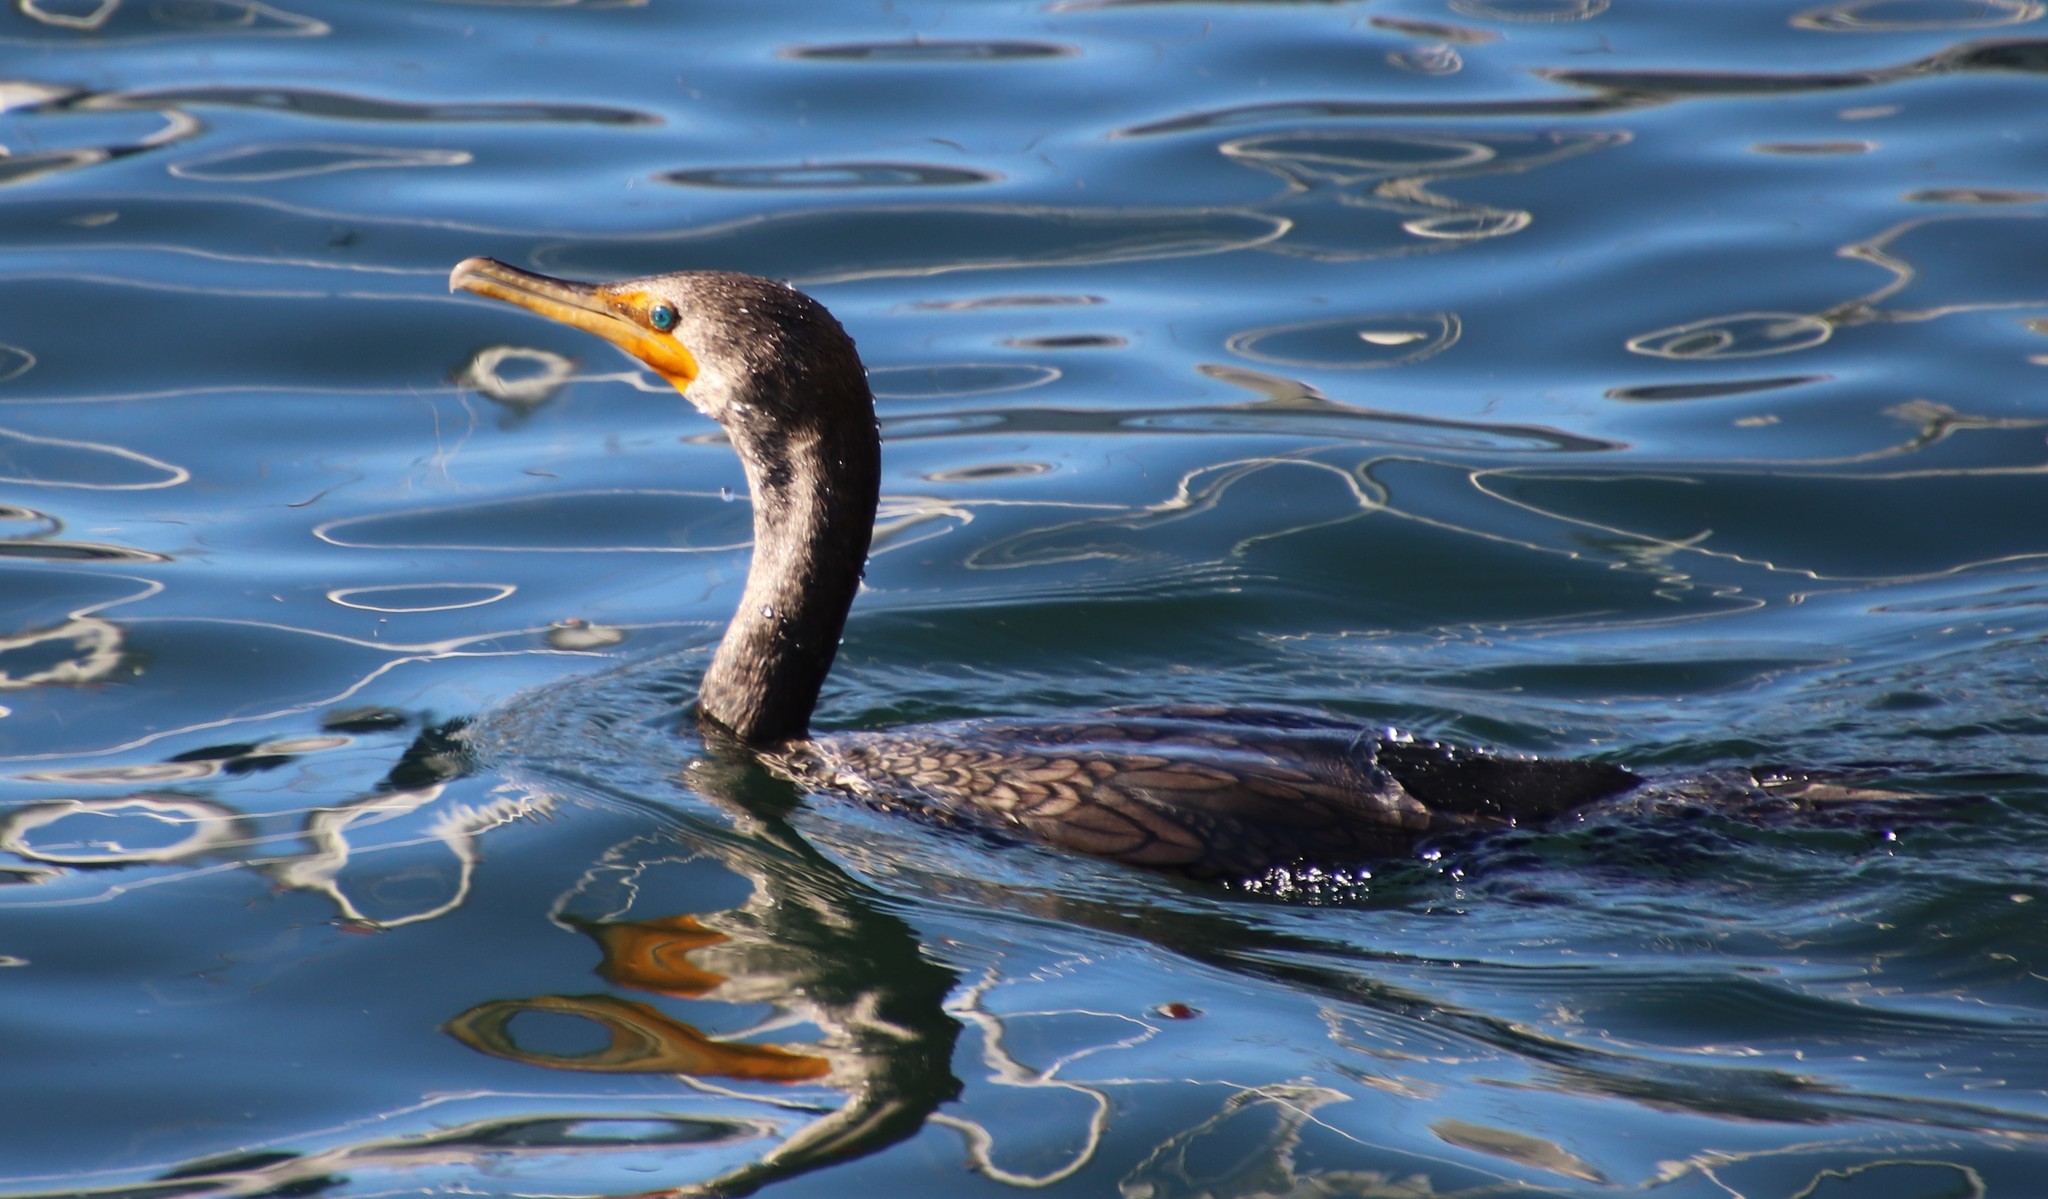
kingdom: Animalia
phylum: Chordata
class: Aves
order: Suliformes
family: Phalacrocoracidae
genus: Phalacrocorax
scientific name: Phalacrocorax auritus
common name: Double-crested cormorant
